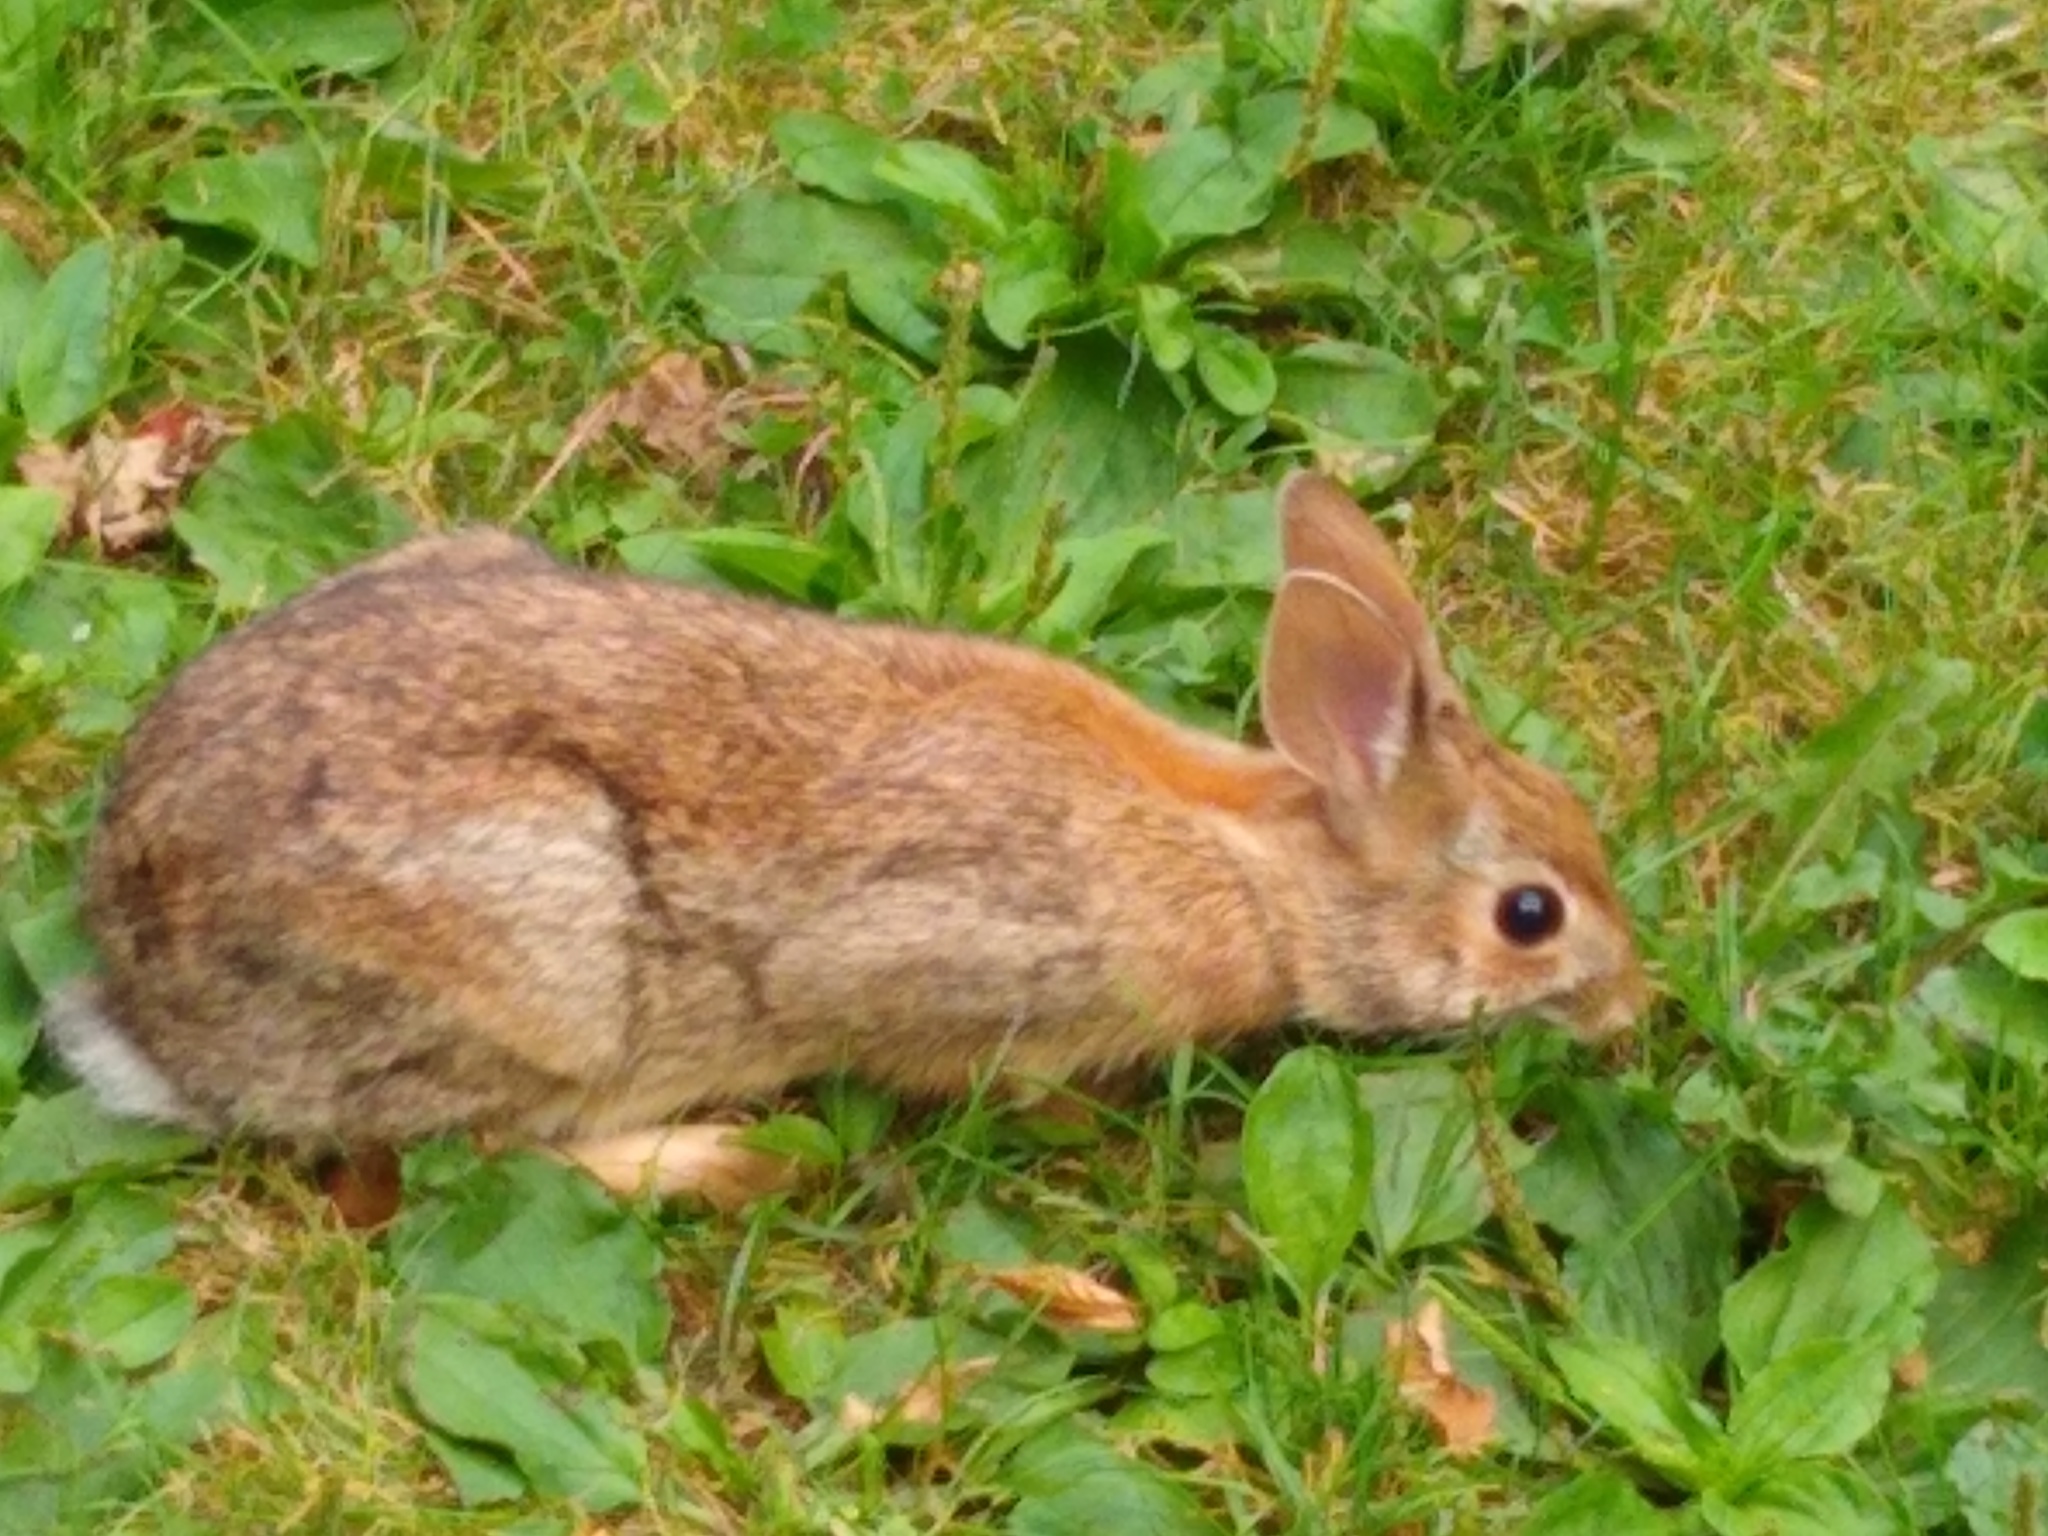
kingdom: Animalia
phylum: Chordata
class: Mammalia
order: Lagomorpha
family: Leporidae
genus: Sylvilagus
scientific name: Sylvilagus floridanus
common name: Eastern cottontail
